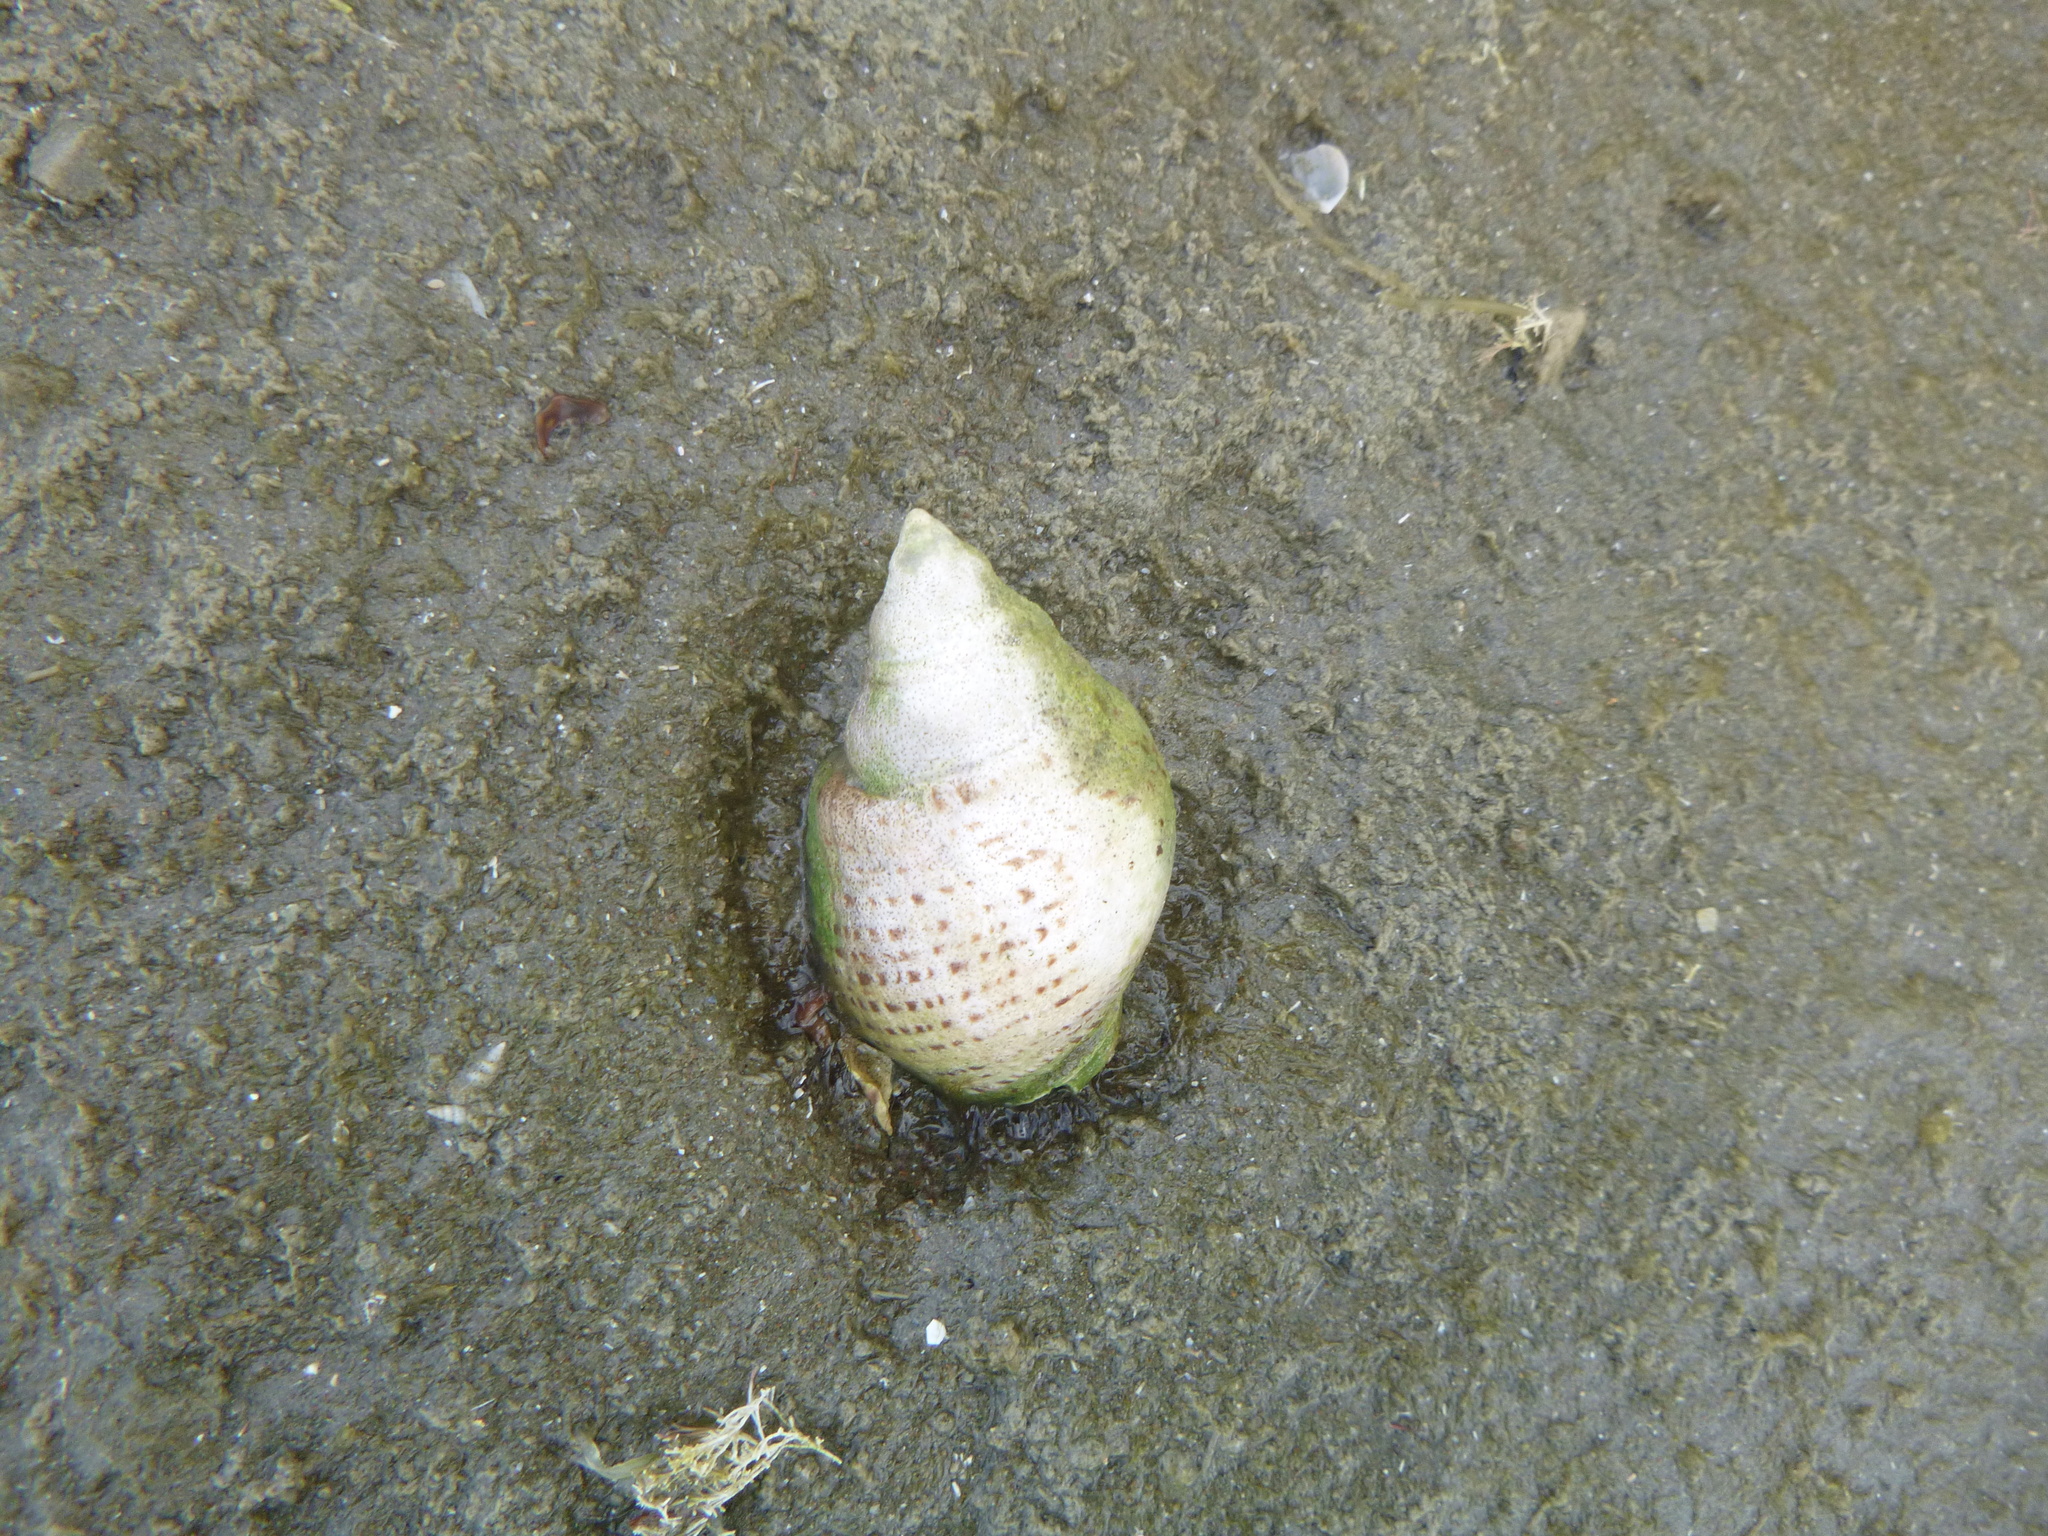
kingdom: Animalia
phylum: Mollusca
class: Gastropoda
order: Neogastropoda
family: Cominellidae
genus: Cominella
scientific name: Cominella adspersa
